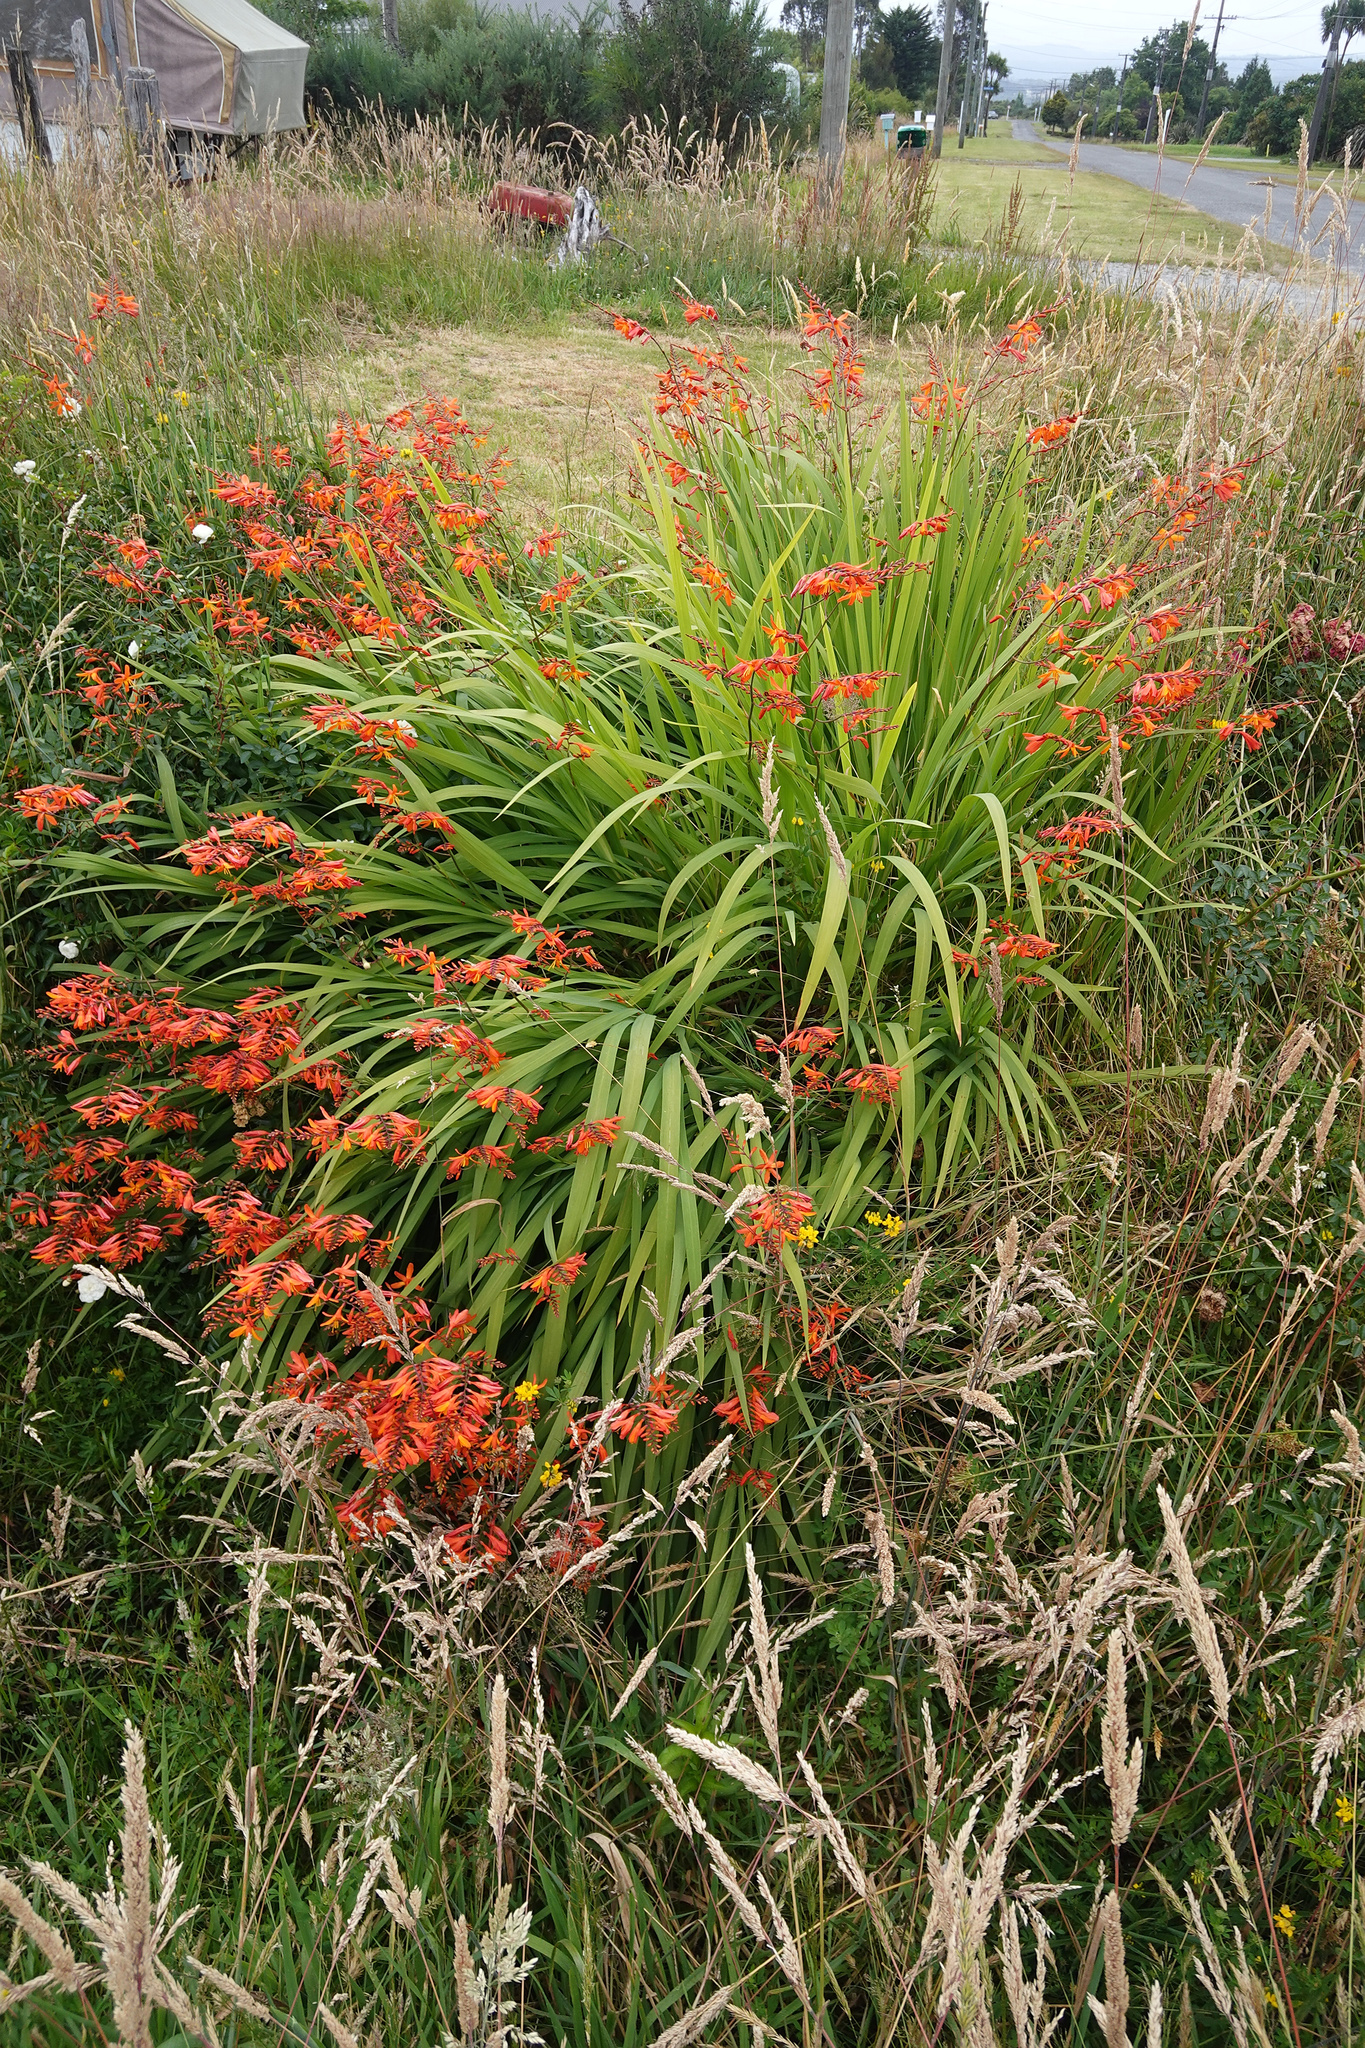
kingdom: Plantae
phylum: Tracheophyta
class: Liliopsida
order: Asparagales
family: Iridaceae
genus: Crocosmia
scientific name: Crocosmia crocosmiiflora
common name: Montbretia
